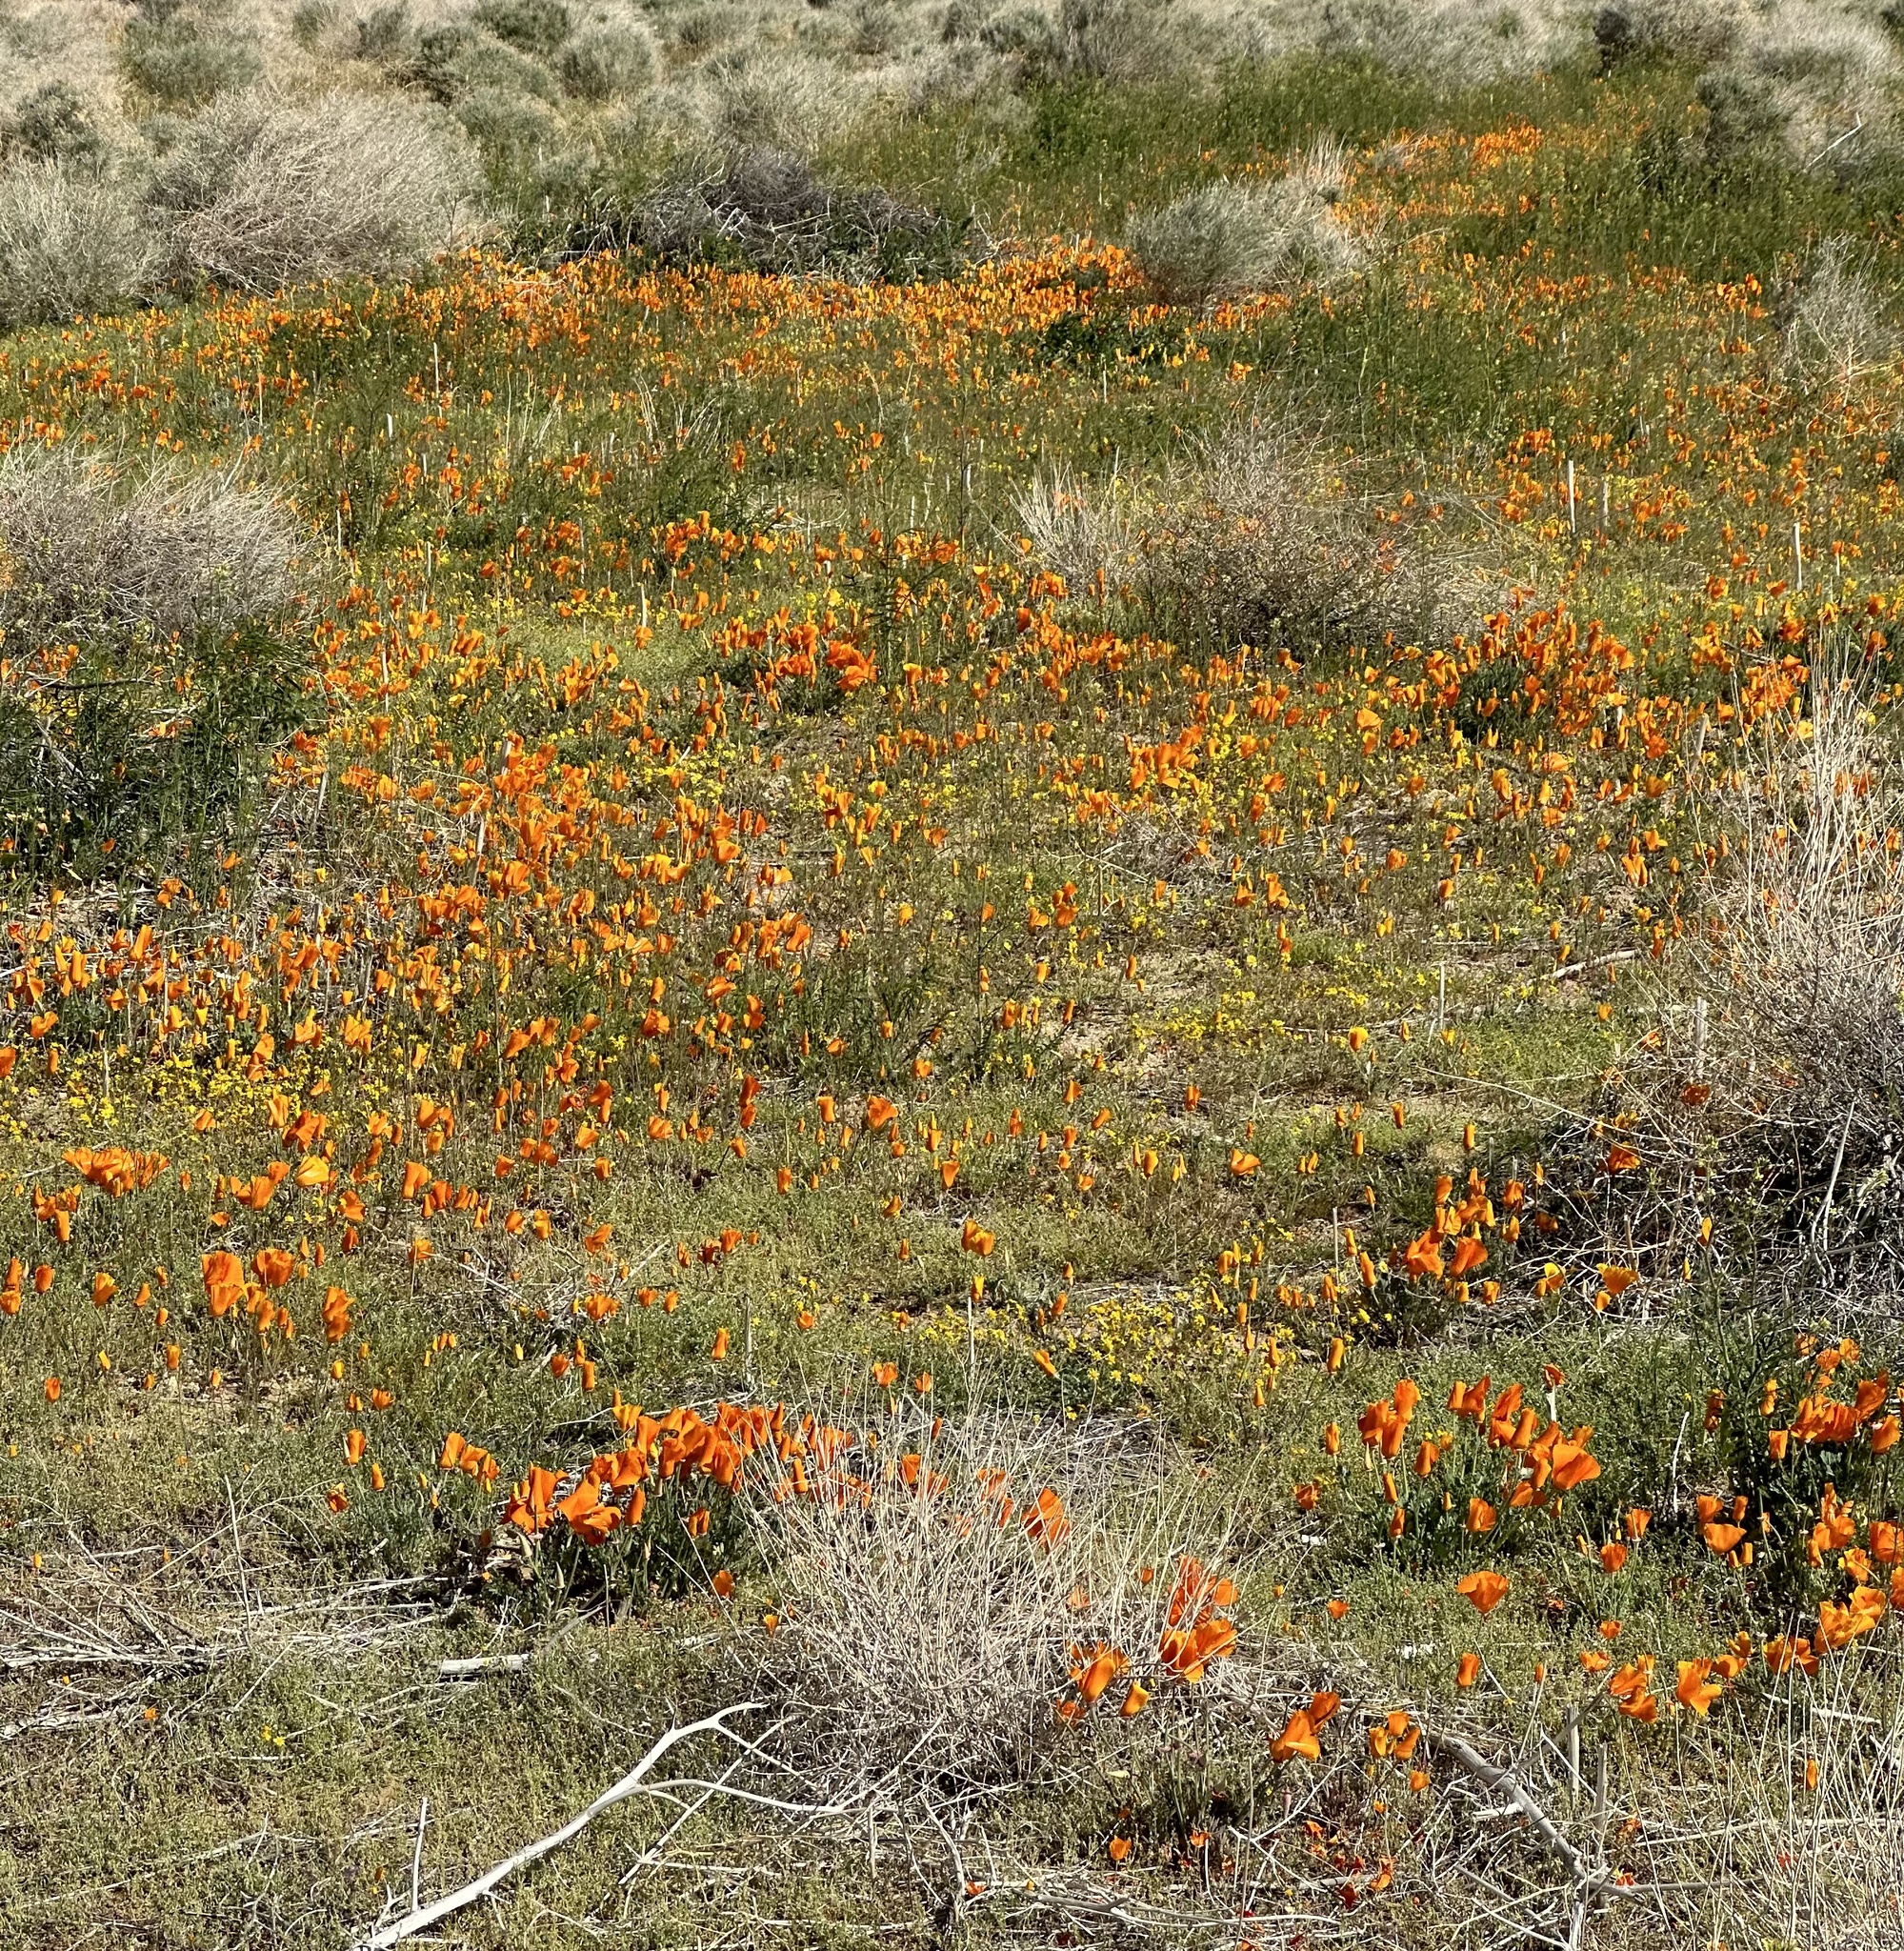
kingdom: Plantae
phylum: Tracheophyta
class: Magnoliopsida
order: Ranunculales
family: Papaveraceae
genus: Eschscholzia
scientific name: Eschscholzia californica
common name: California poppy
